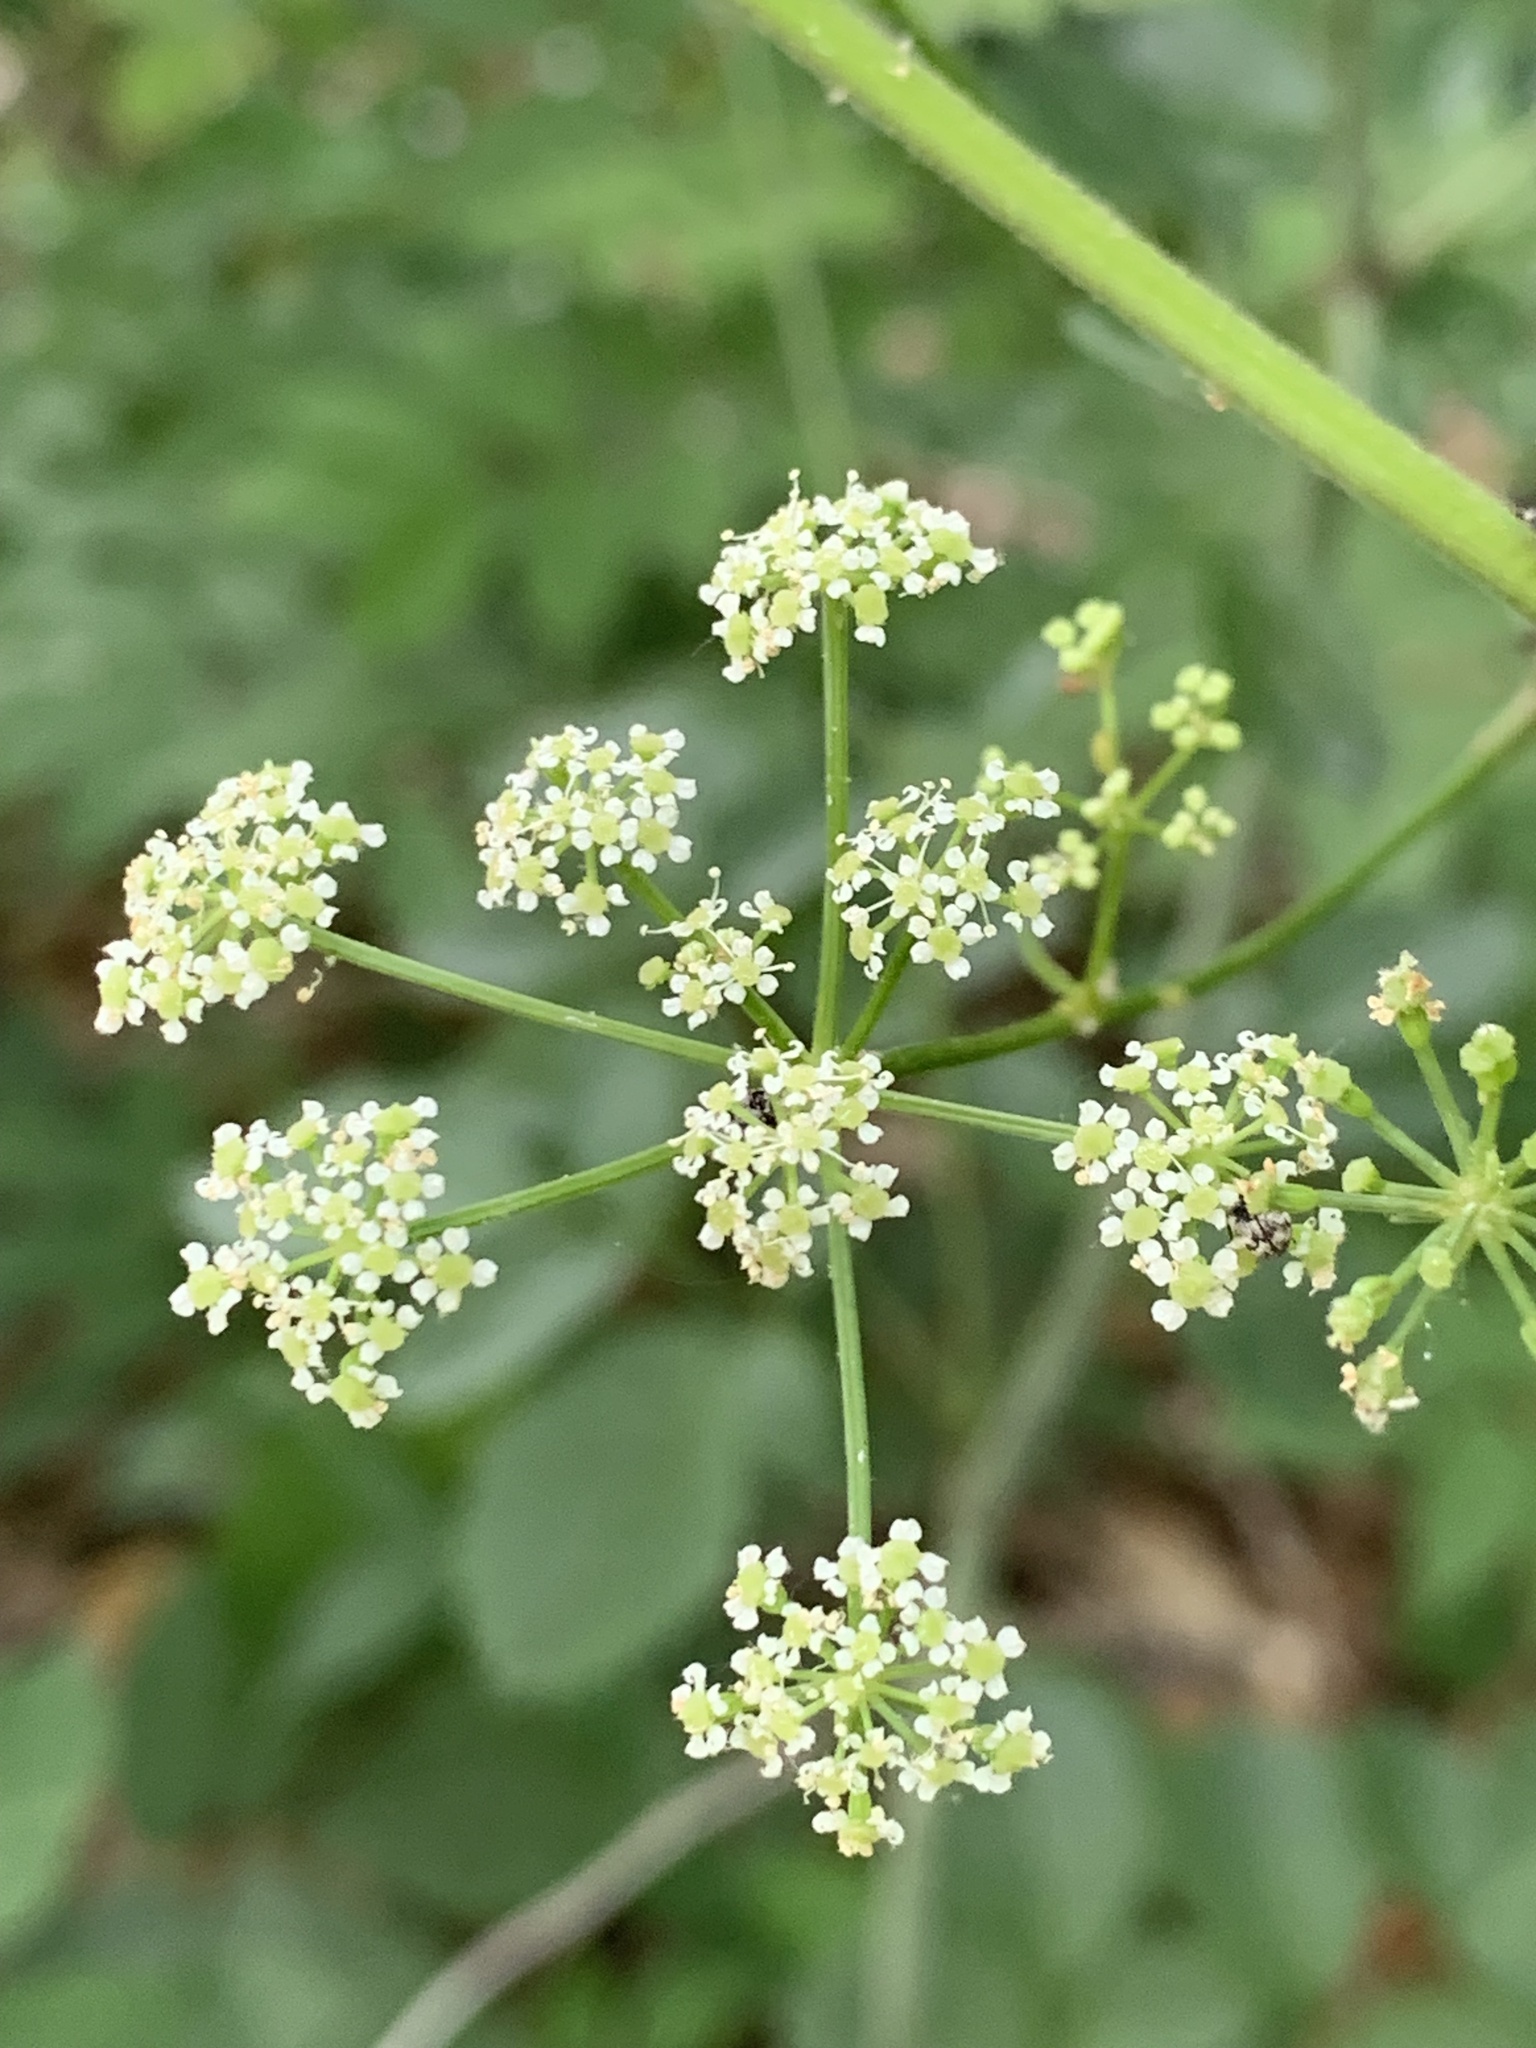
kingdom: Plantae
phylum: Tracheophyta
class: Magnoliopsida
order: Apiales
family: Apiaceae
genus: Ligusticum
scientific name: Ligusticum canadense
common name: American lovage
